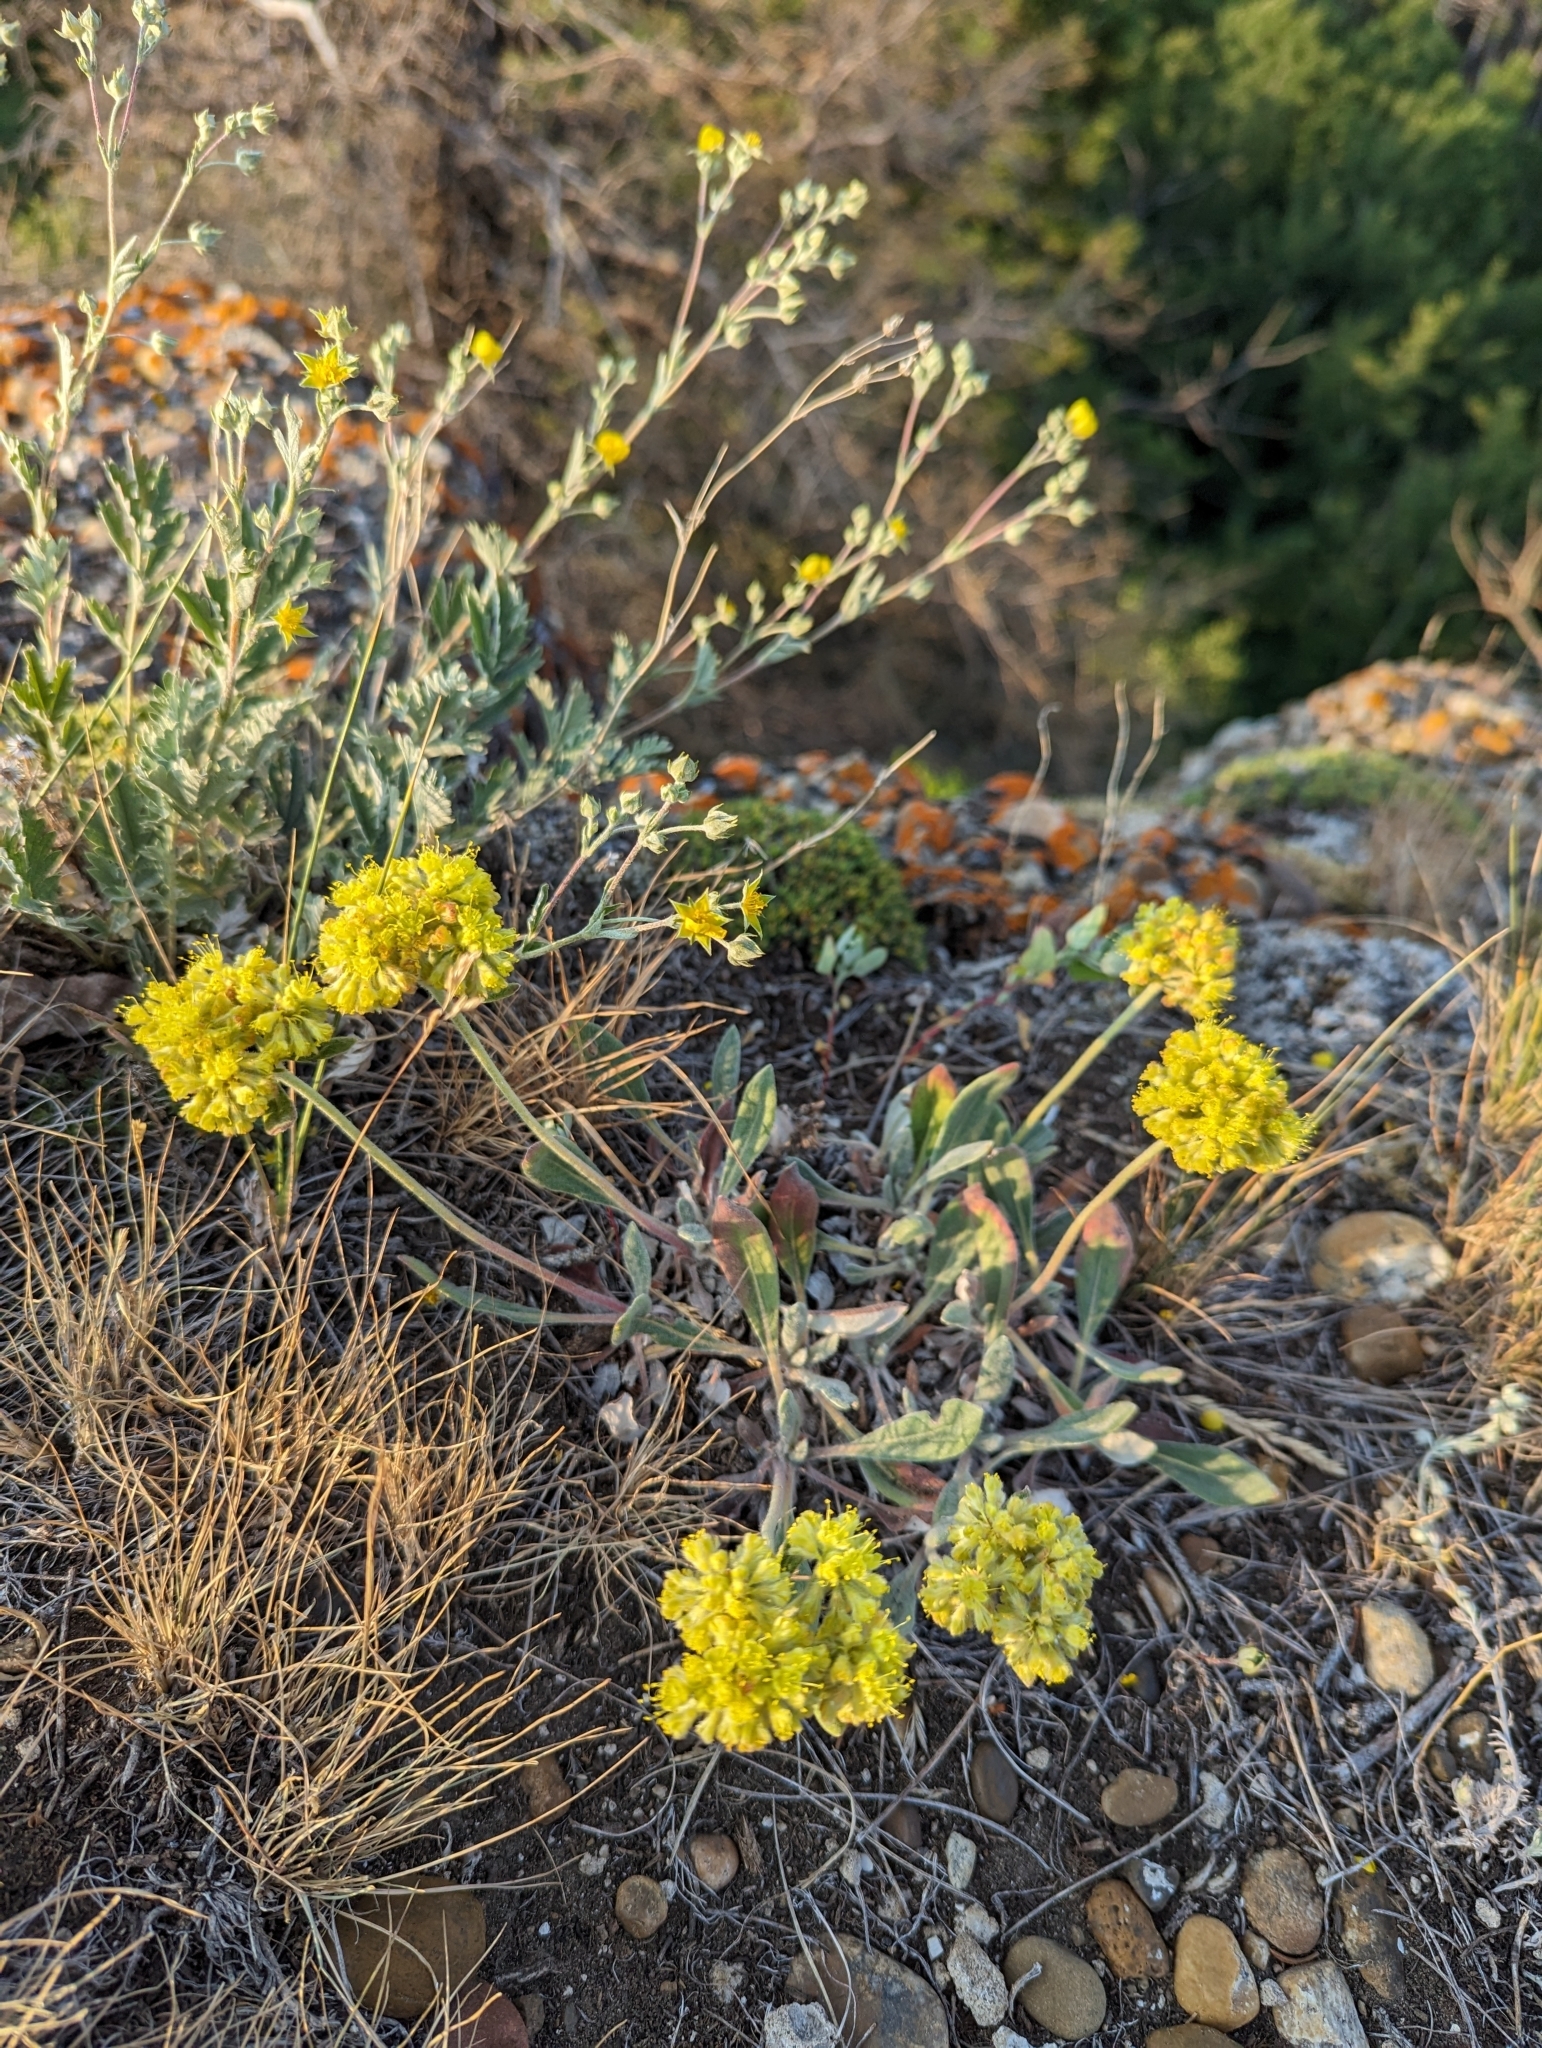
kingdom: Plantae
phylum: Tracheophyta
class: Magnoliopsida
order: Caryophyllales
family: Polygonaceae
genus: Eriogonum
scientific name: Eriogonum flavum
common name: Alpine golden wild buckwheat
